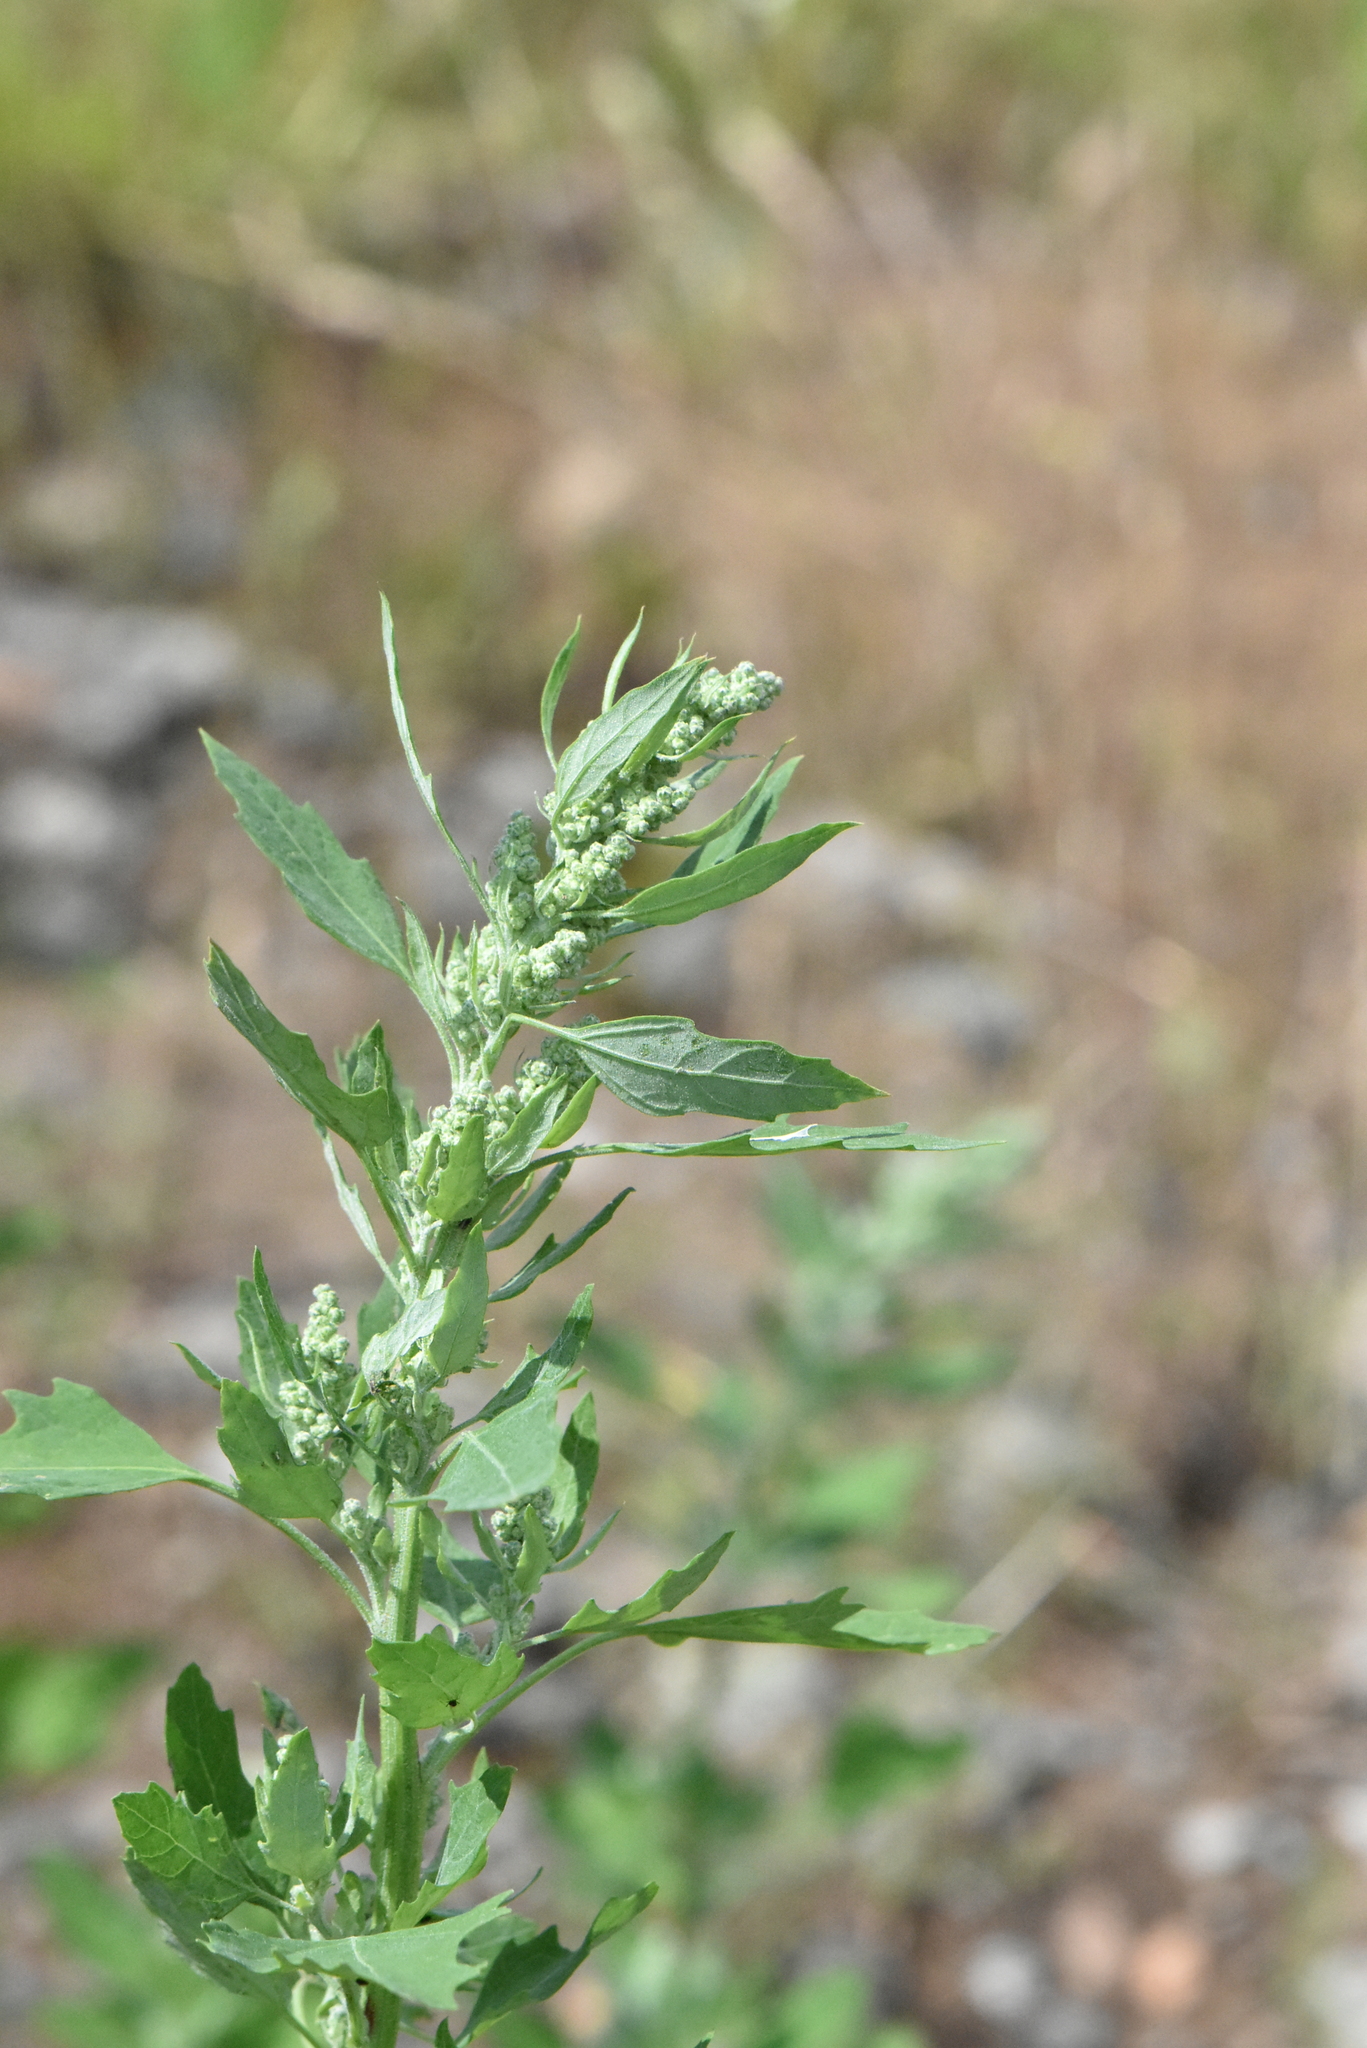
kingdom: Plantae
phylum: Tracheophyta
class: Magnoliopsida
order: Caryophyllales
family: Amaranthaceae
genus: Chenopodium
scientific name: Chenopodium album
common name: Fat-hen
